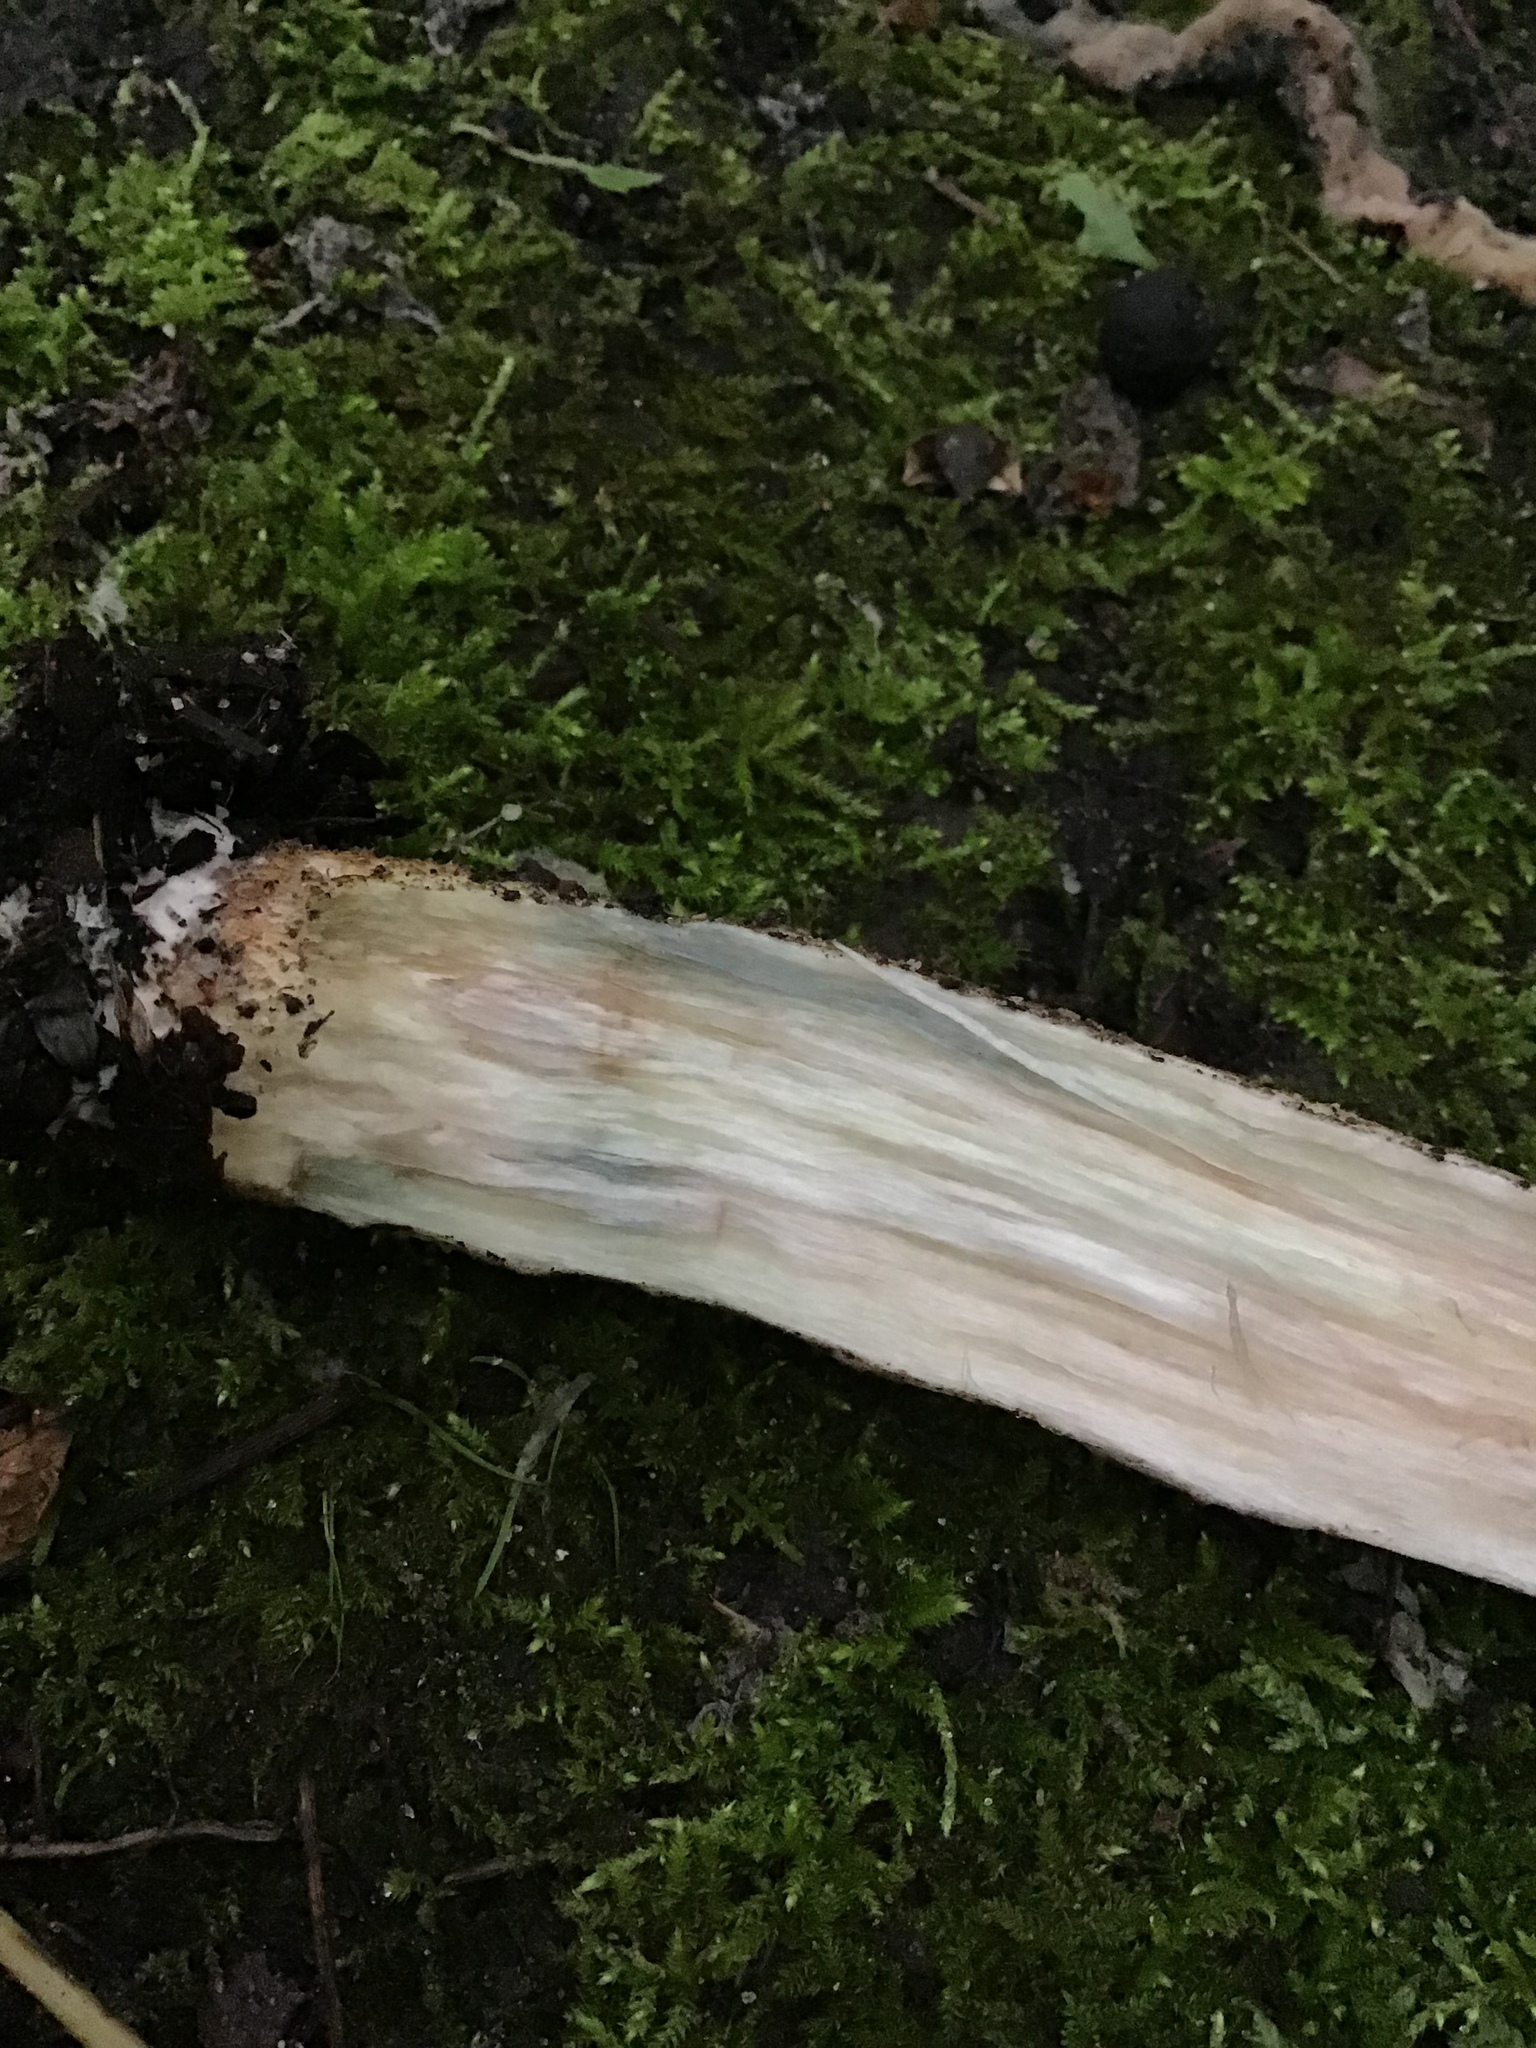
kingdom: Fungi
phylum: Basidiomycota
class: Agaricomycetes
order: Boletales
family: Boletaceae
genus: Leccinum
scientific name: Leccinum insigne
